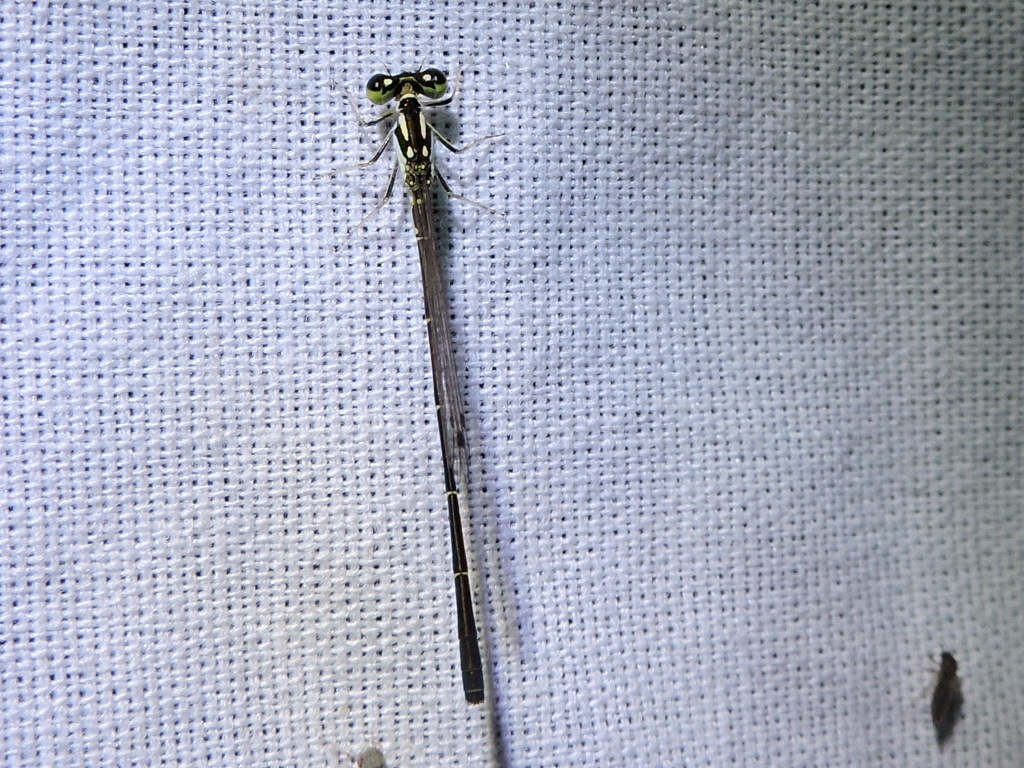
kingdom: Animalia
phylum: Arthropoda
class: Insecta
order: Odonata
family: Coenagrionidae
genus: Ischnura
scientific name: Ischnura posita
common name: Fragile forktail
